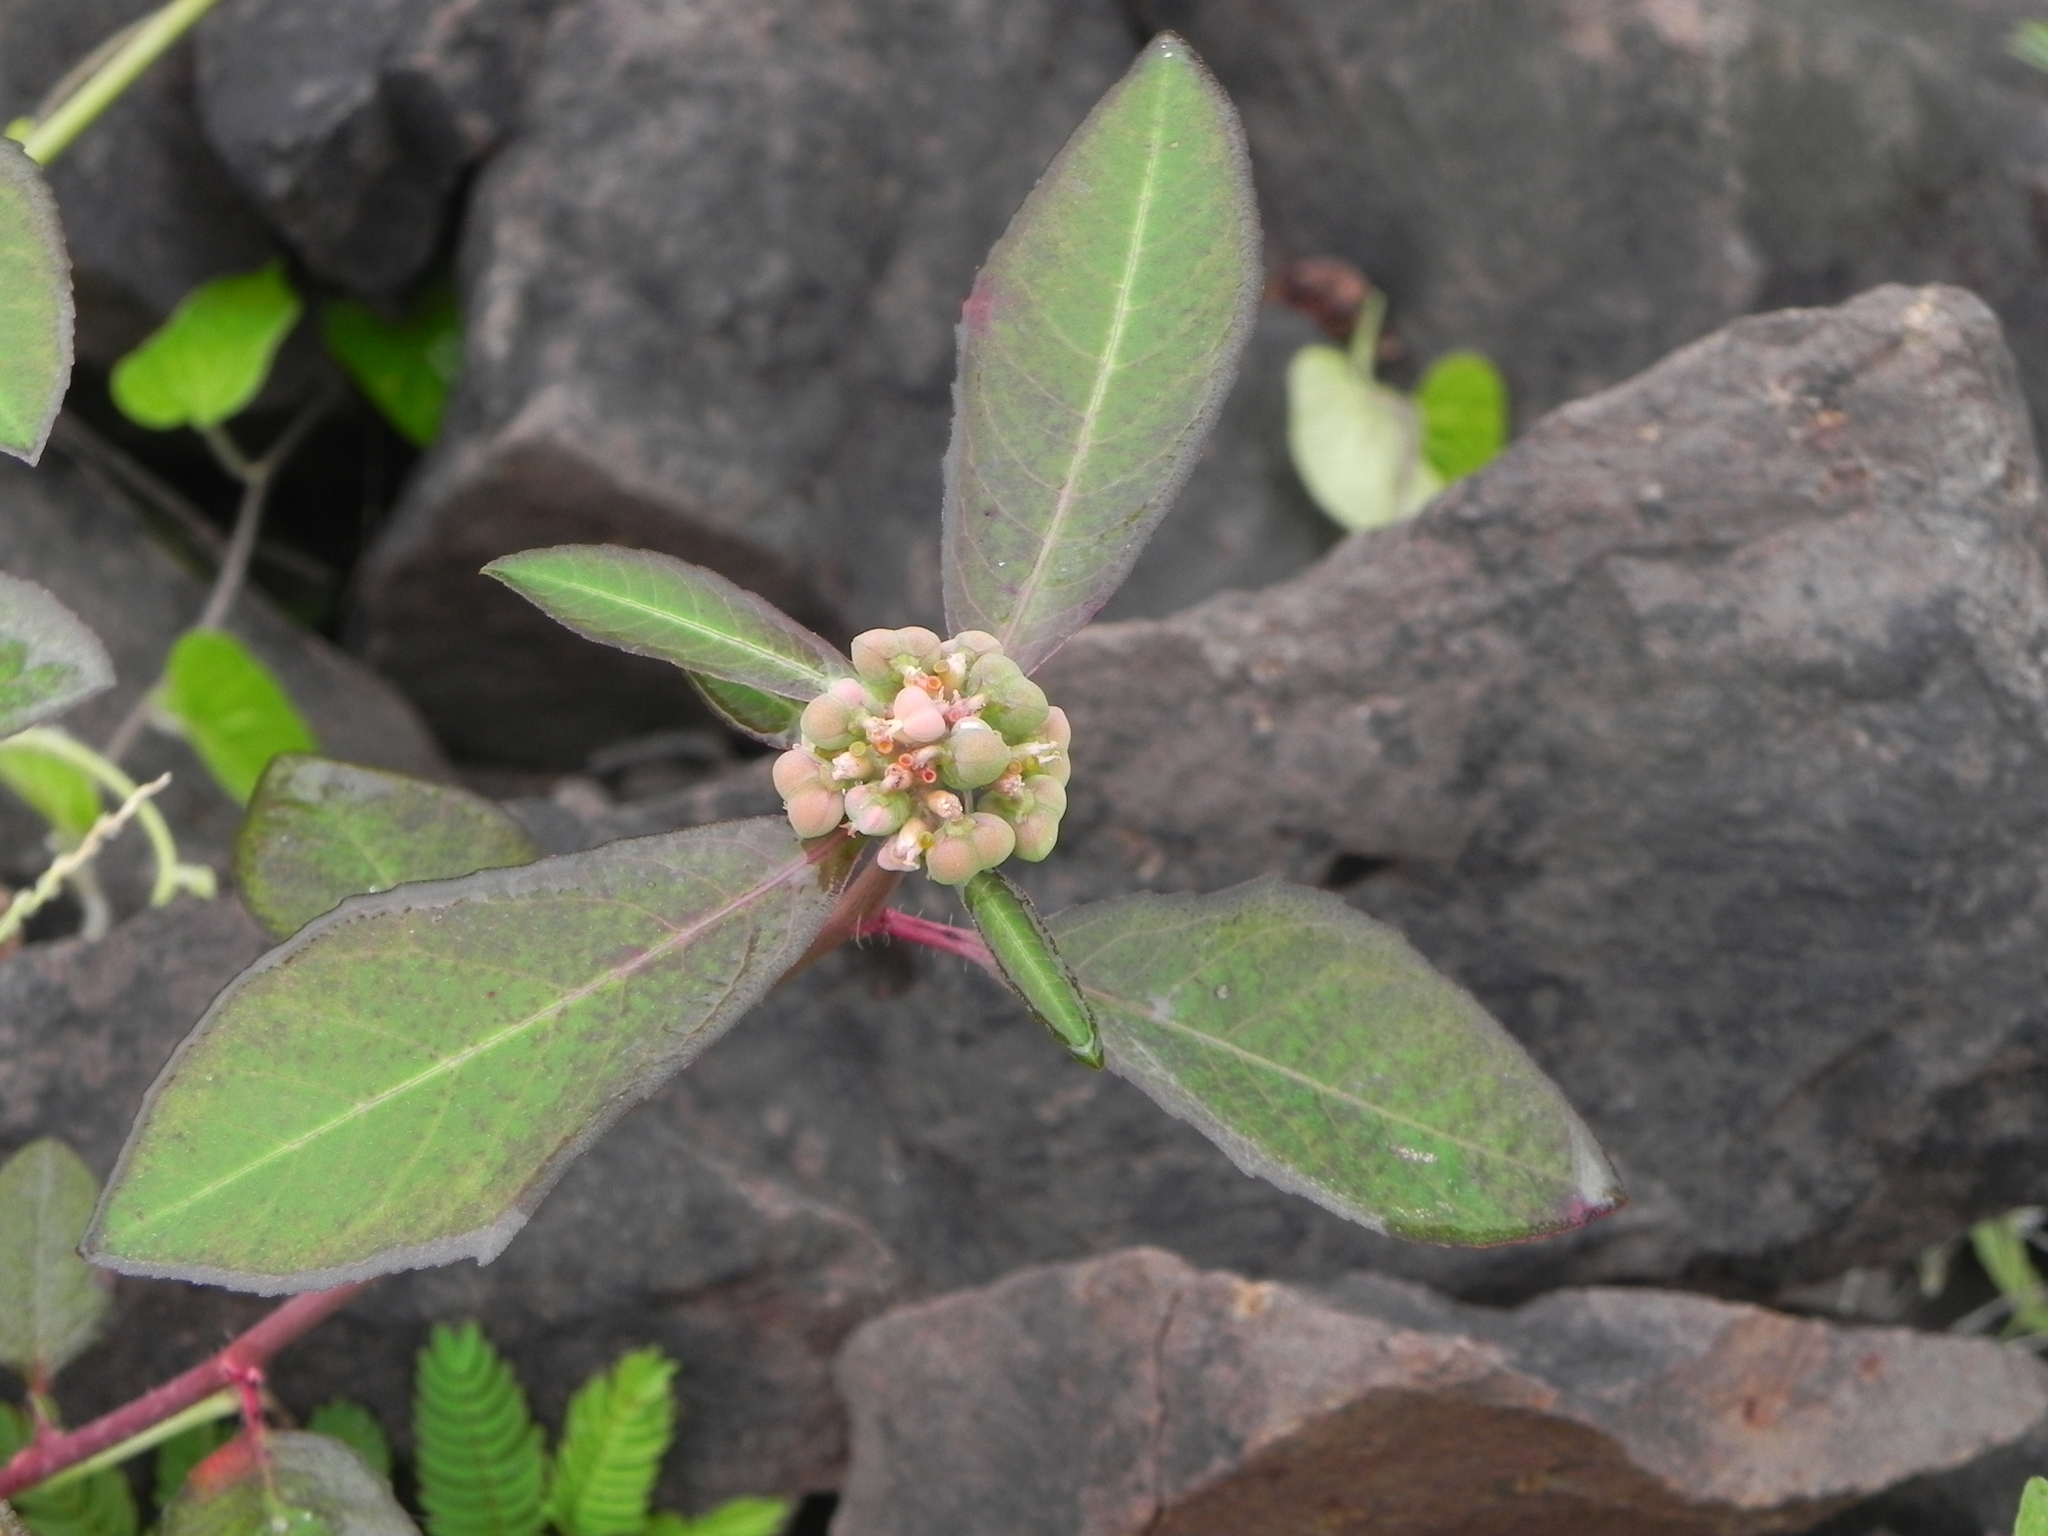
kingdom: Plantae
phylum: Tracheophyta
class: Magnoliopsida
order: Malpighiales
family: Euphorbiaceae
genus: Euphorbia
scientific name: Euphorbia heterophylla
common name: Mexican fireplant
